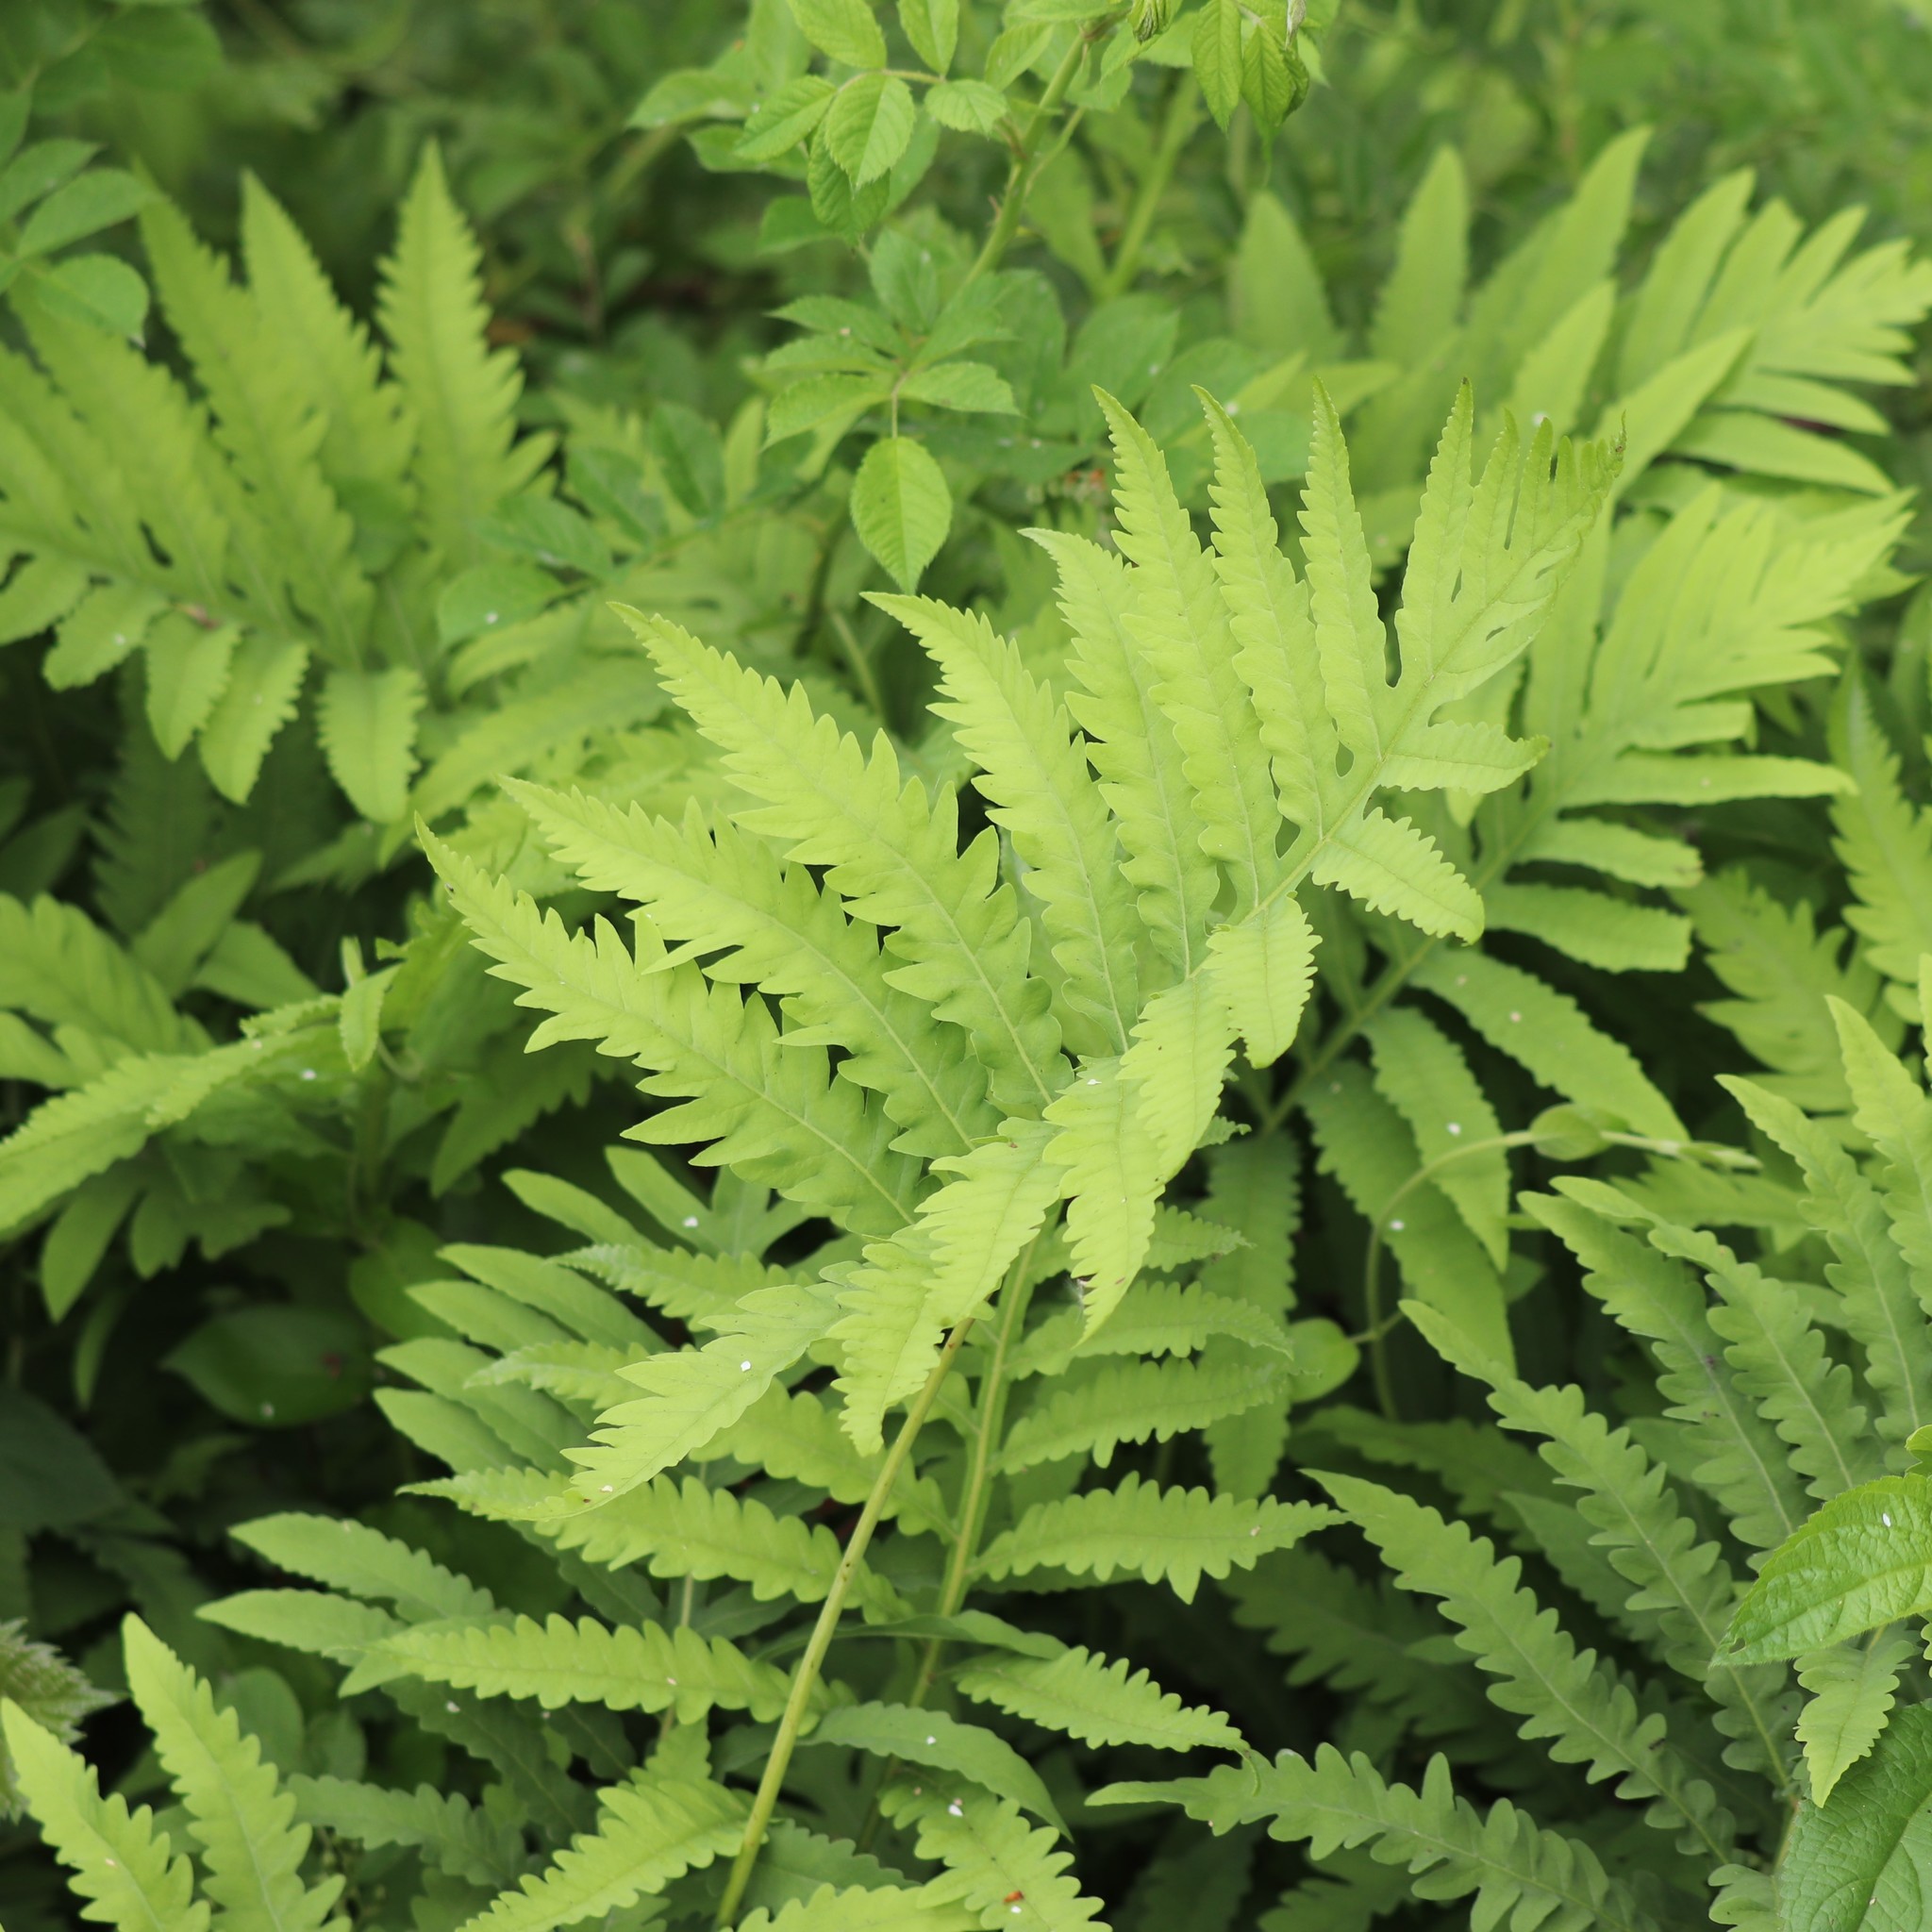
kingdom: Plantae
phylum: Tracheophyta
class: Polypodiopsida
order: Polypodiales
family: Onocleaceae
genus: Onoclea
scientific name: Onoclea sensibilis
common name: Sensitive fern
